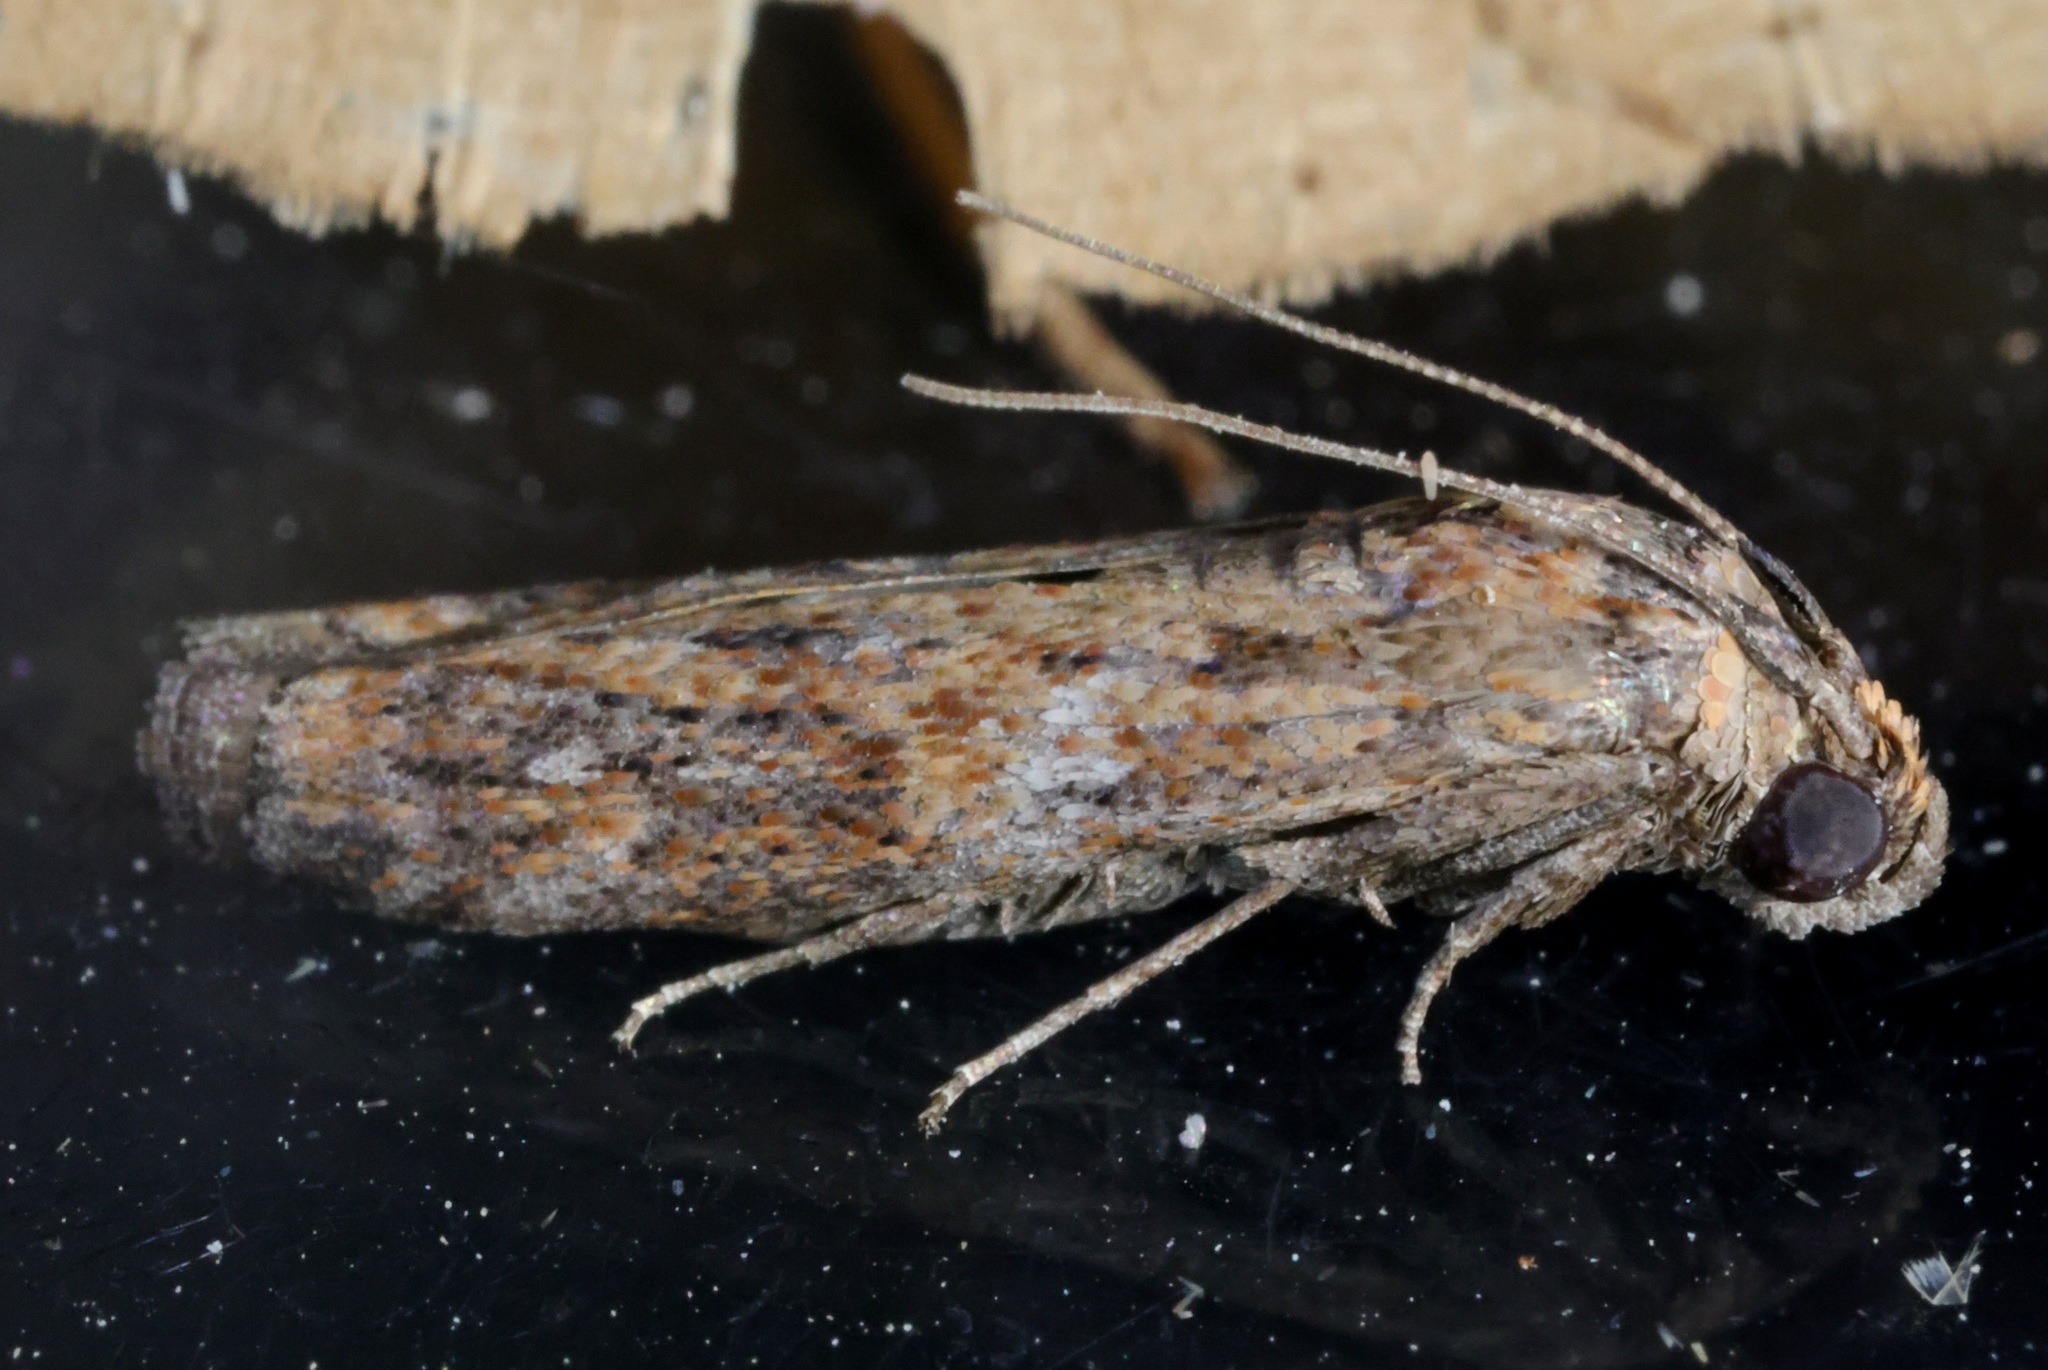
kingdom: Animalia
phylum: Arthropoda
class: Insecta
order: Lepidoptera
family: Pyralidae
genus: Phycita
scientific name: Phycita cirrhodelta
